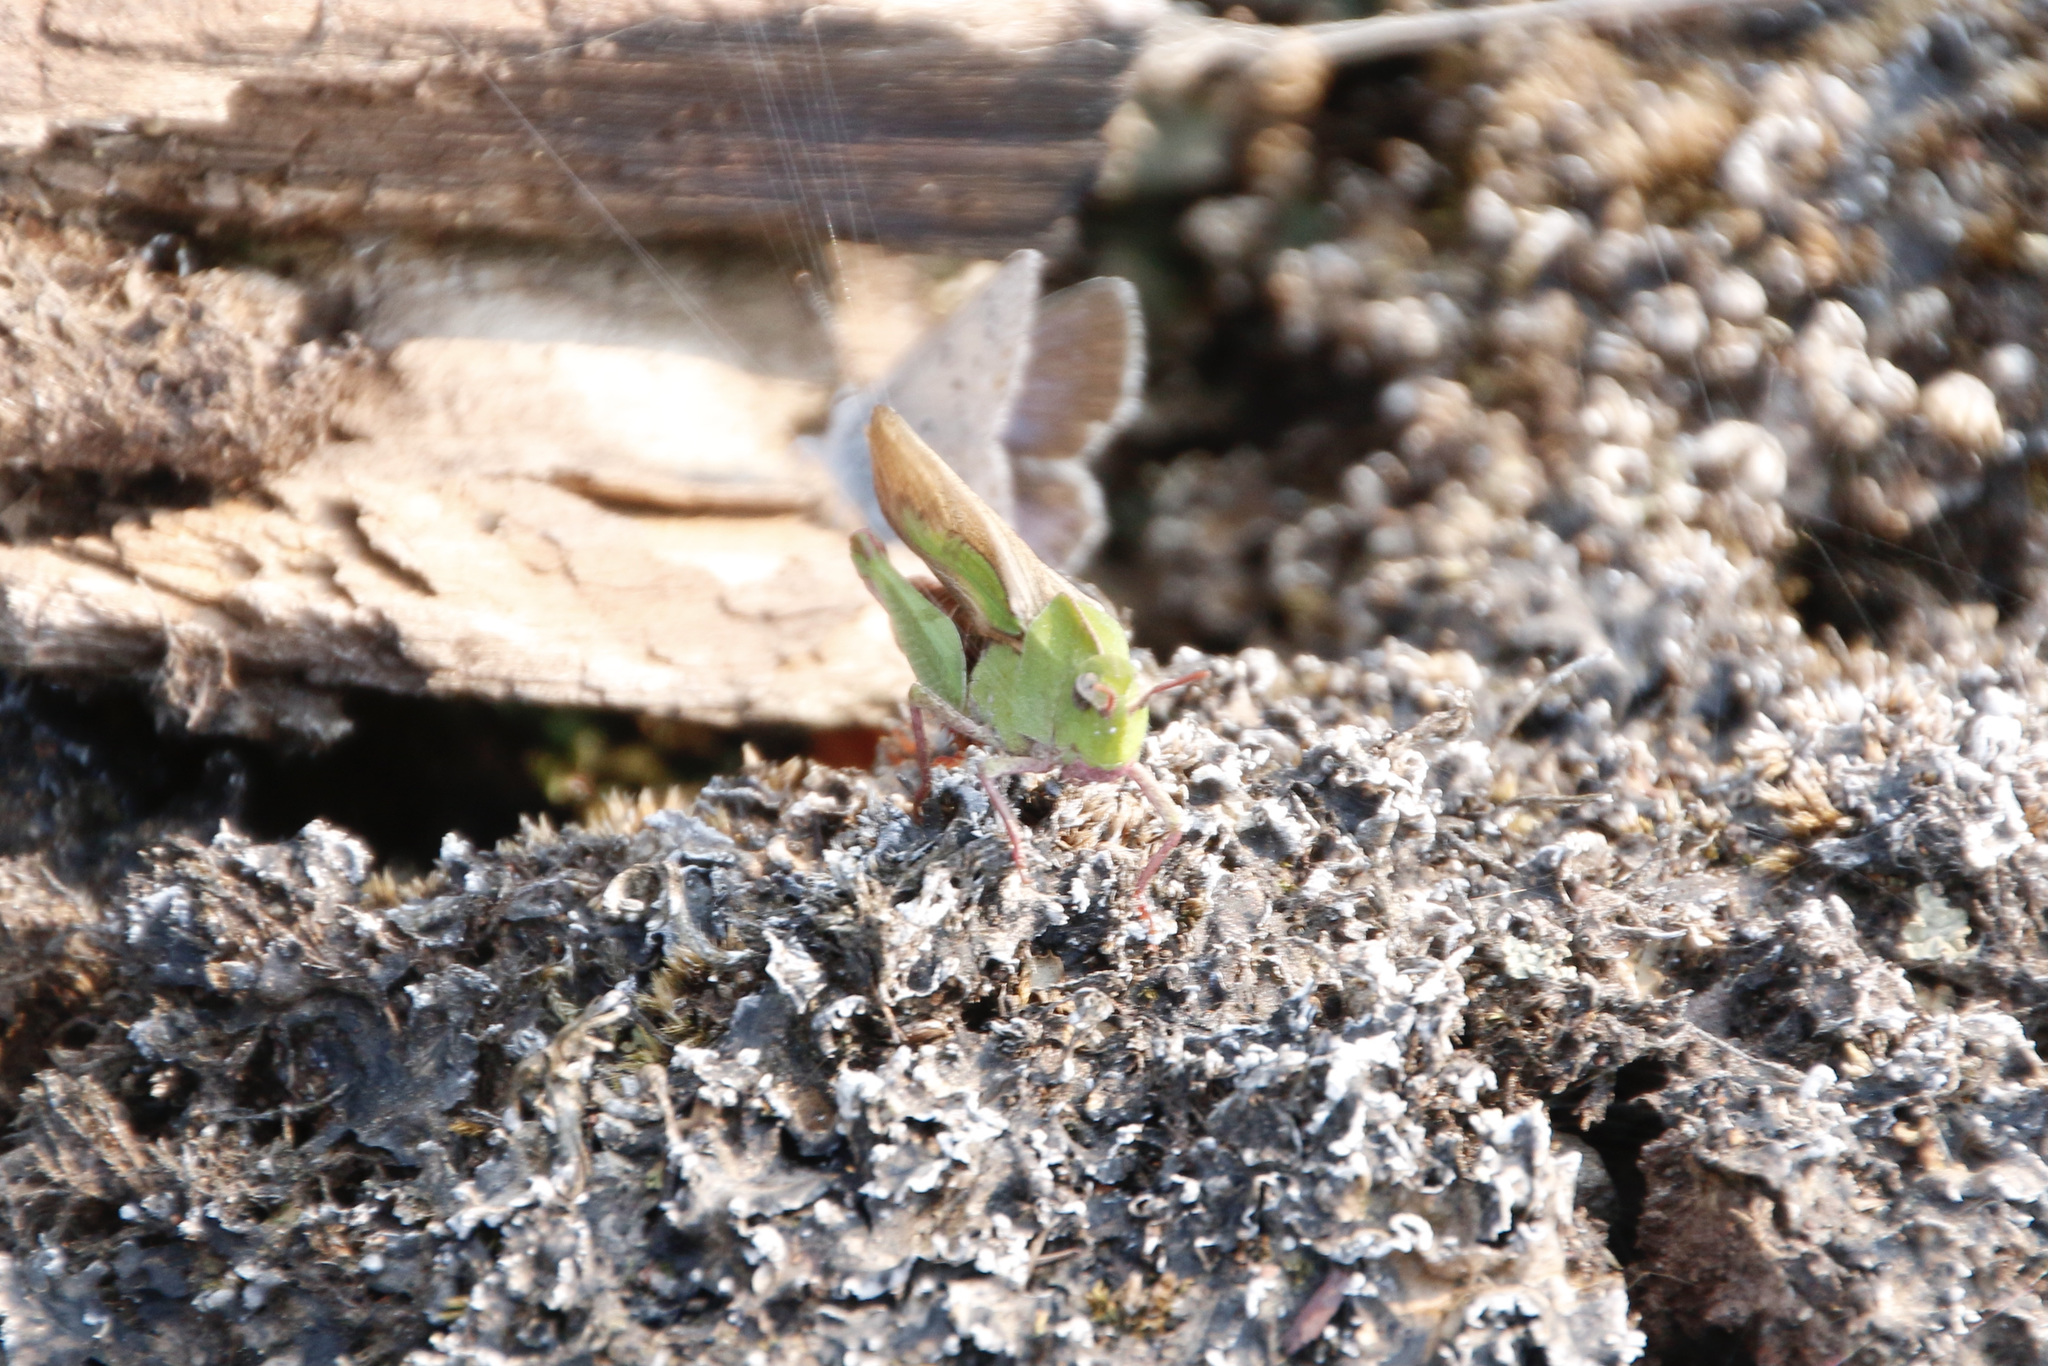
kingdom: Animalia
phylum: Arthropoda
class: Insecta
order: Orthoptera
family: Acrididae
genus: Chortophaga
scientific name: Chortophaga viridifasciata
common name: Green-striped grasshopper
